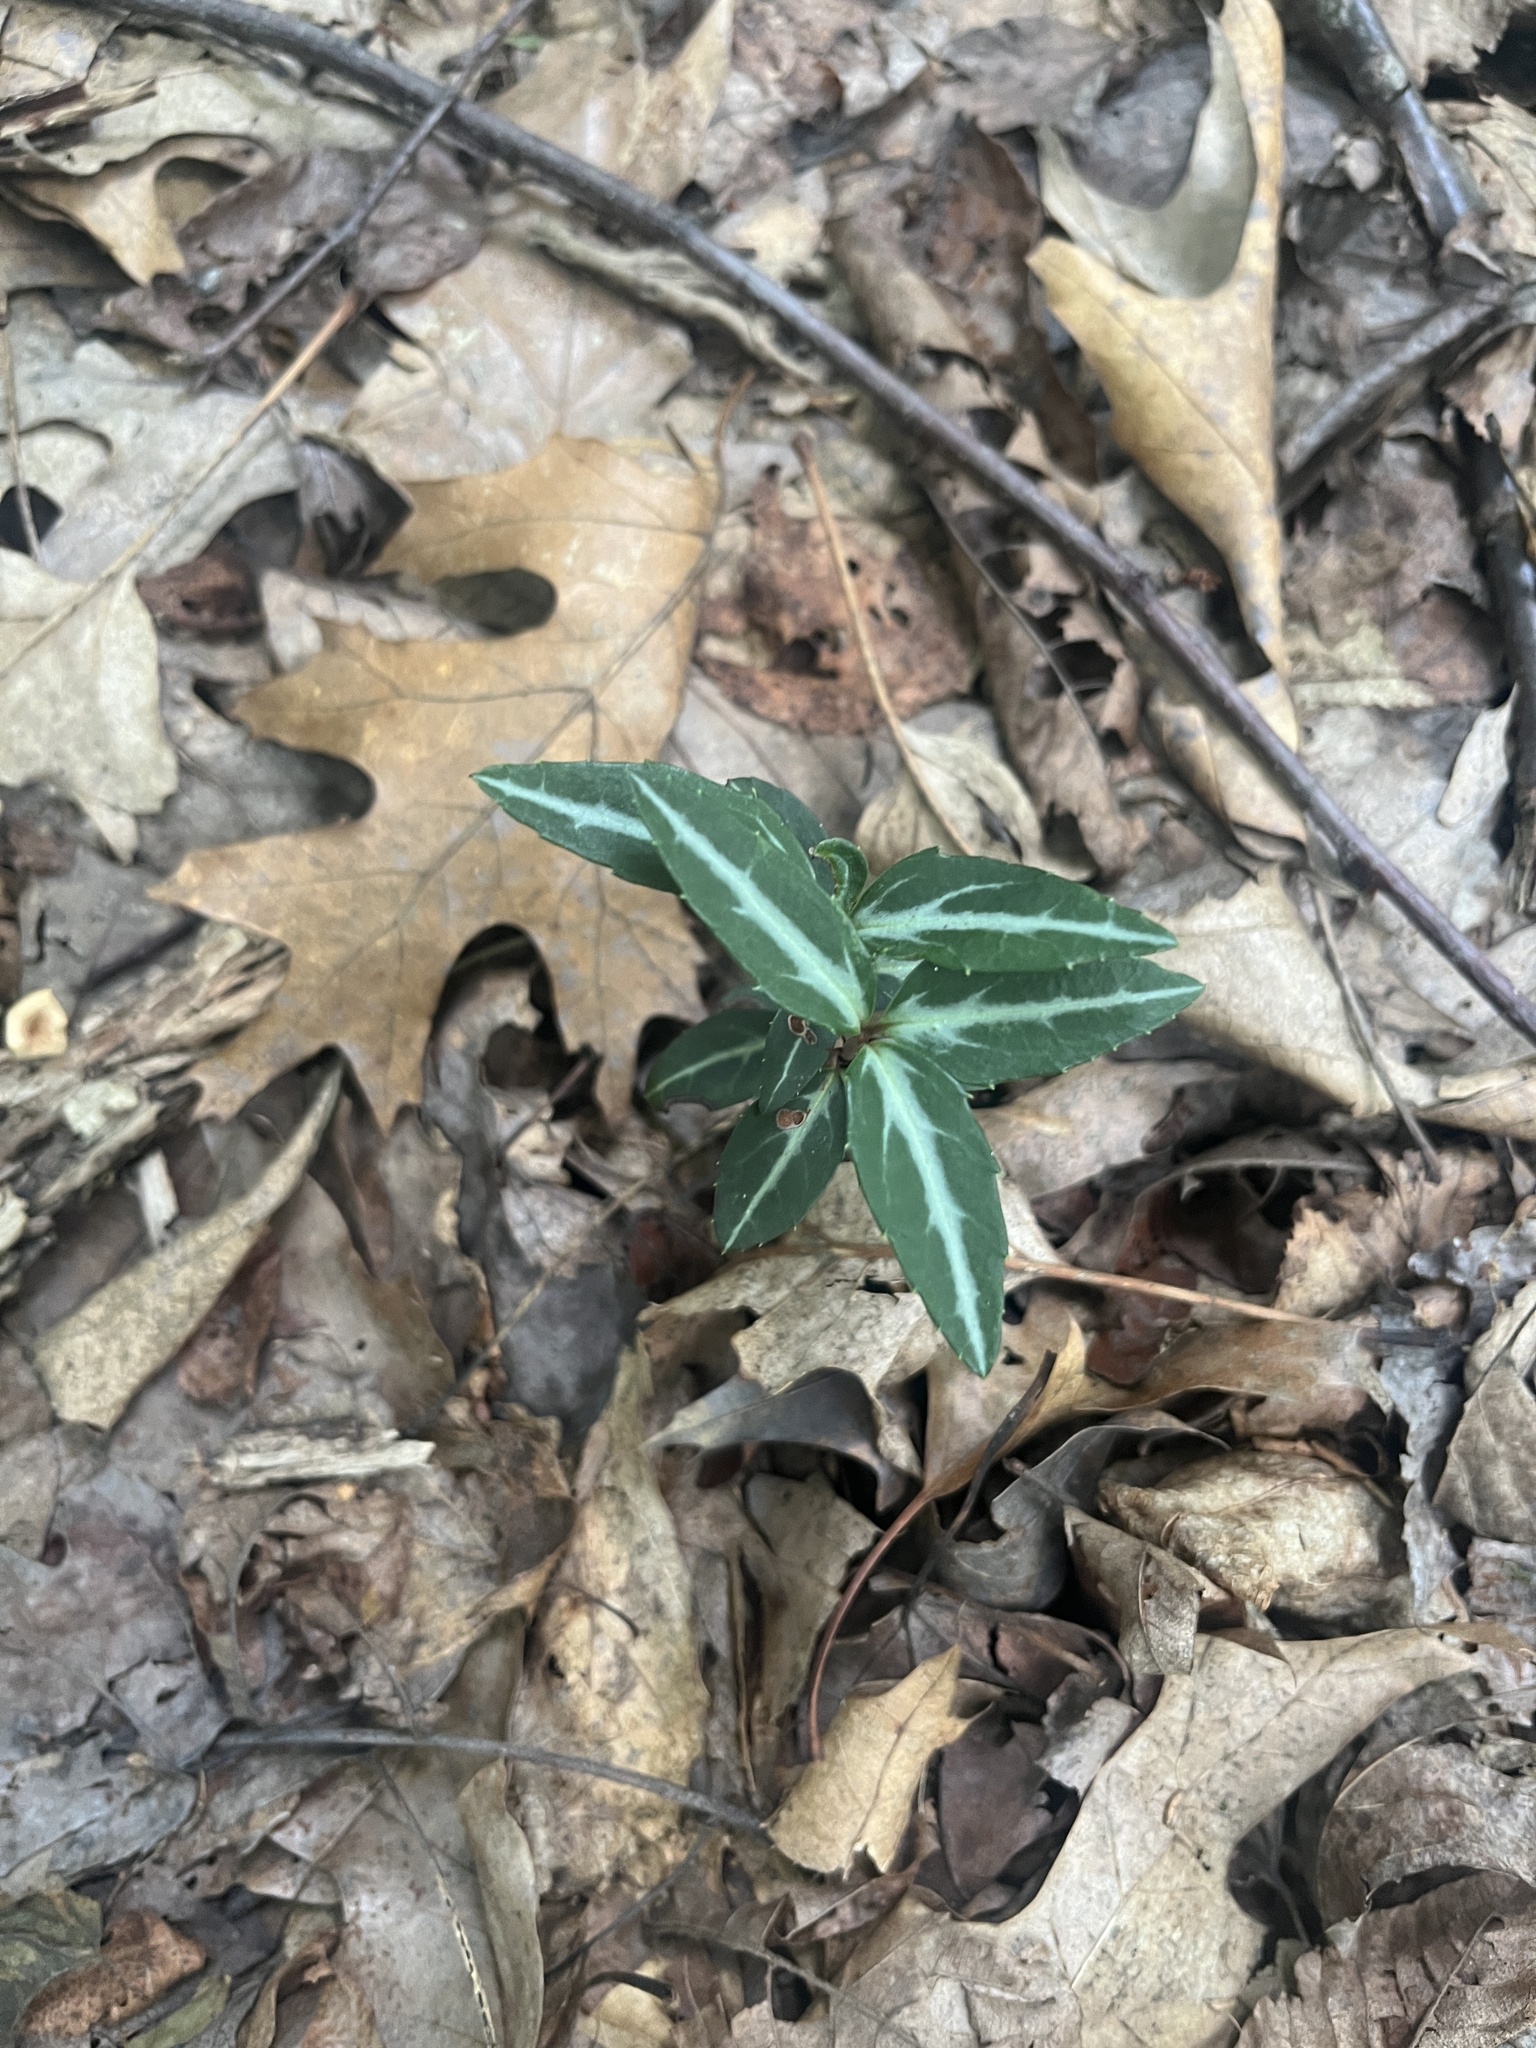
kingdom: Plantae
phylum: Tracheophyta
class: Magnoliopsida
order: Ericales
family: Ericaceae
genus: Chimaphila
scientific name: Chimaphila maculata
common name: Spotted pipsissewa
